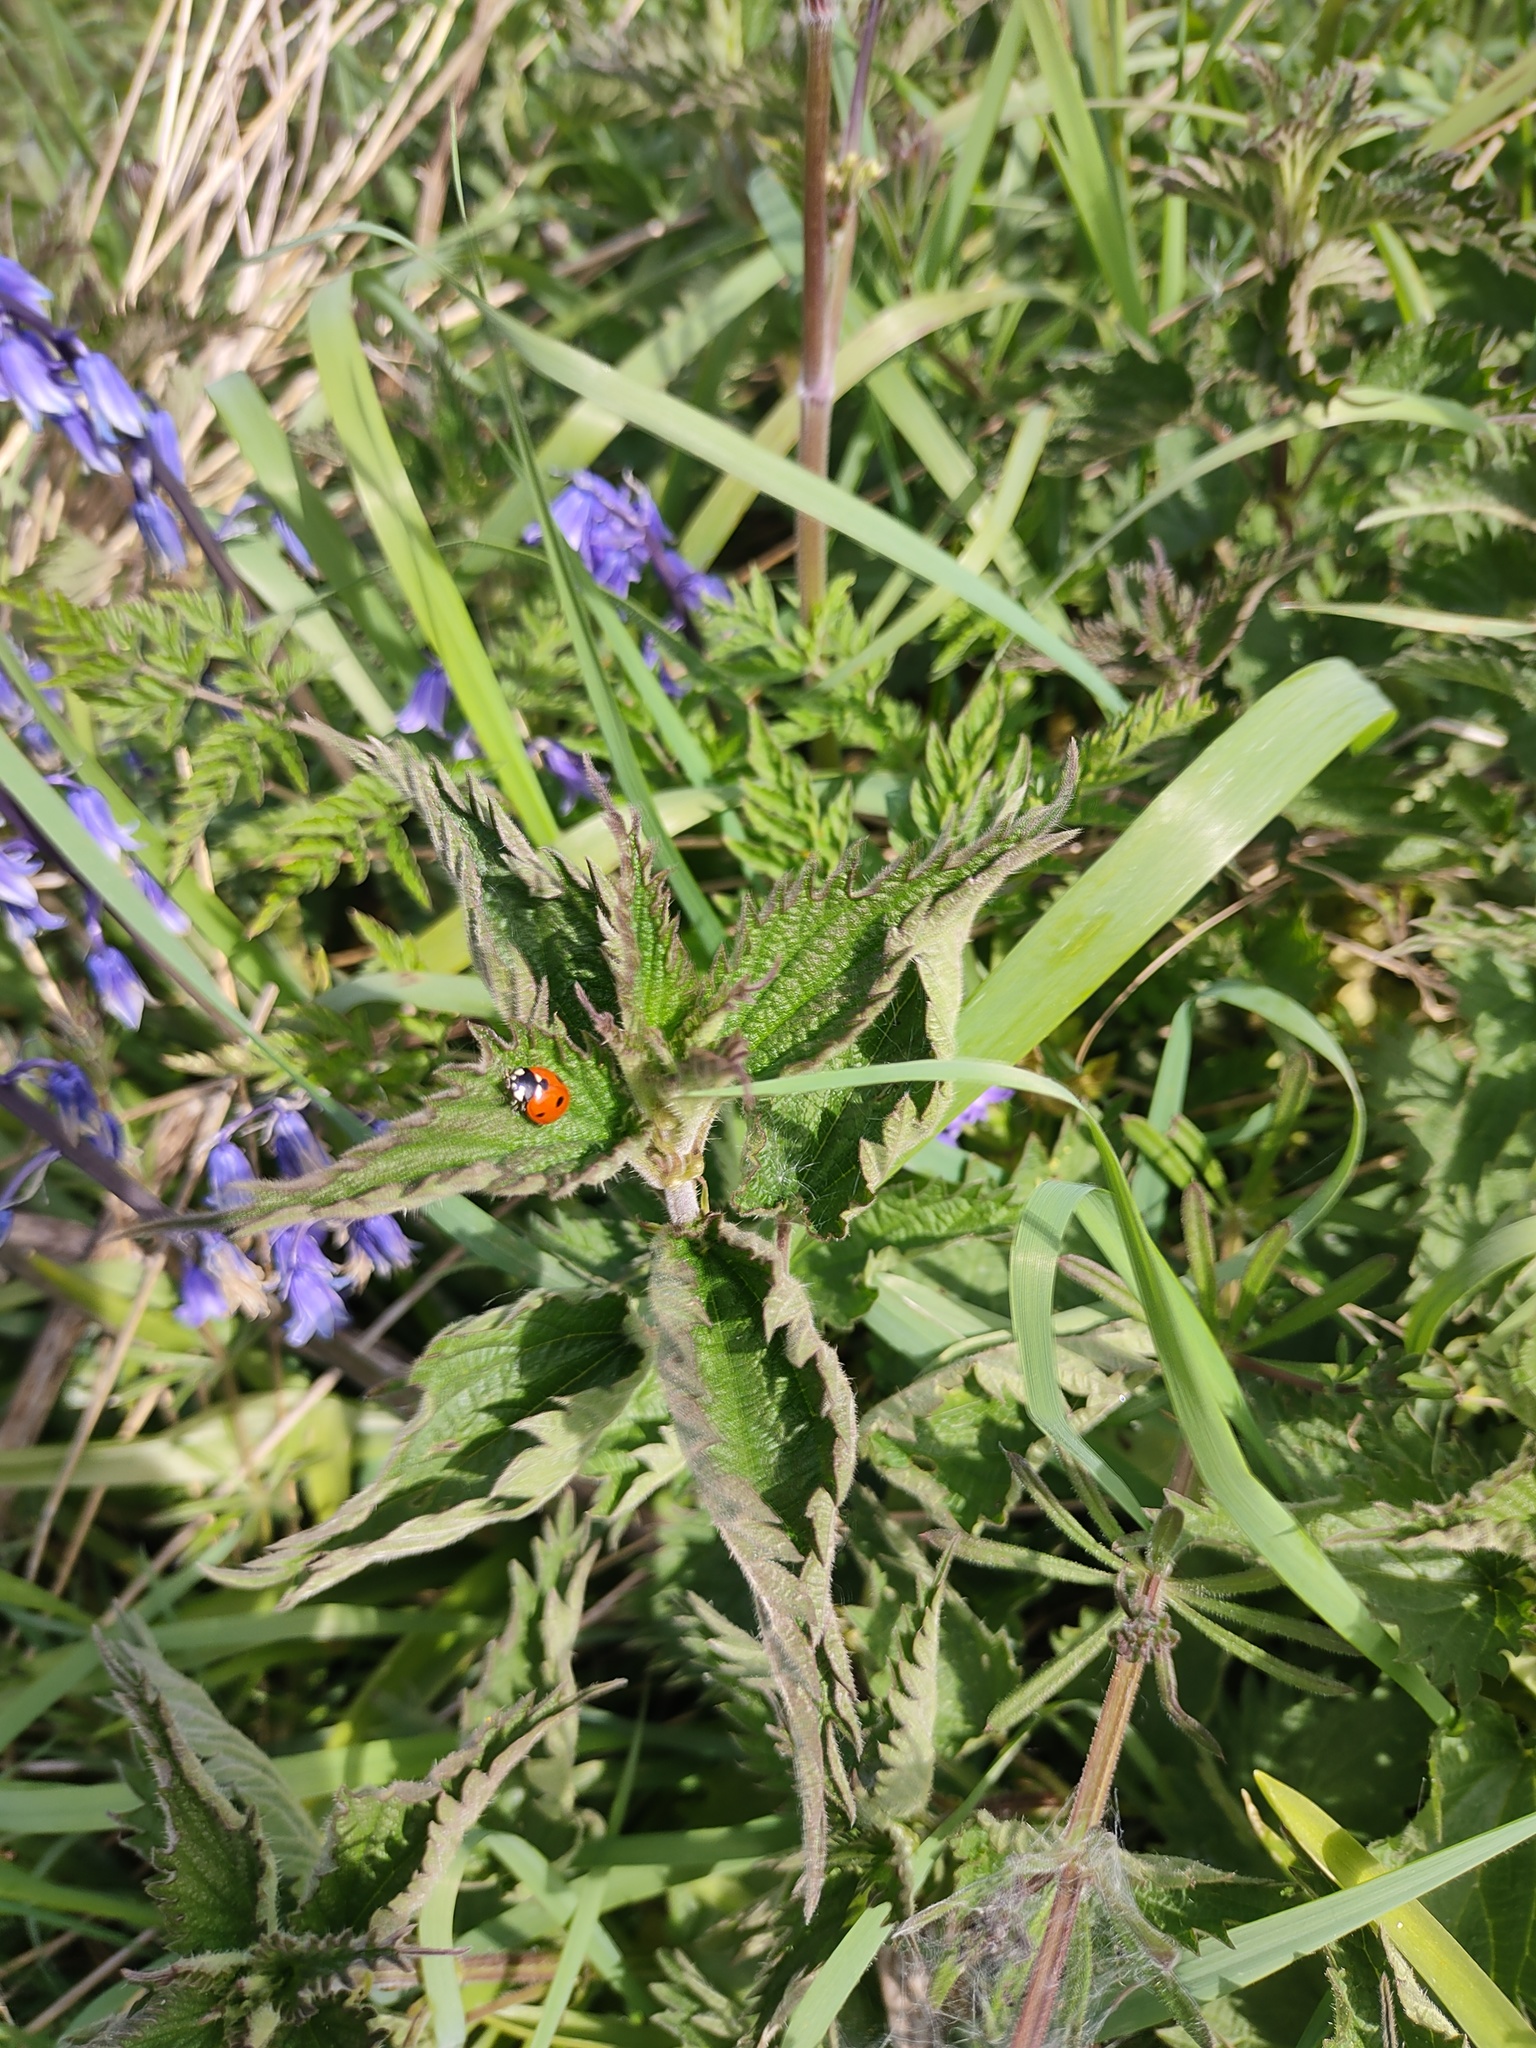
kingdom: Animalia
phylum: Arthropoda
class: Insecta
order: Coleoptera
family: Coccinellidae
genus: Coccinella
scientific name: Coccinella septempunctata
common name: Sevenspotted lady beetle
